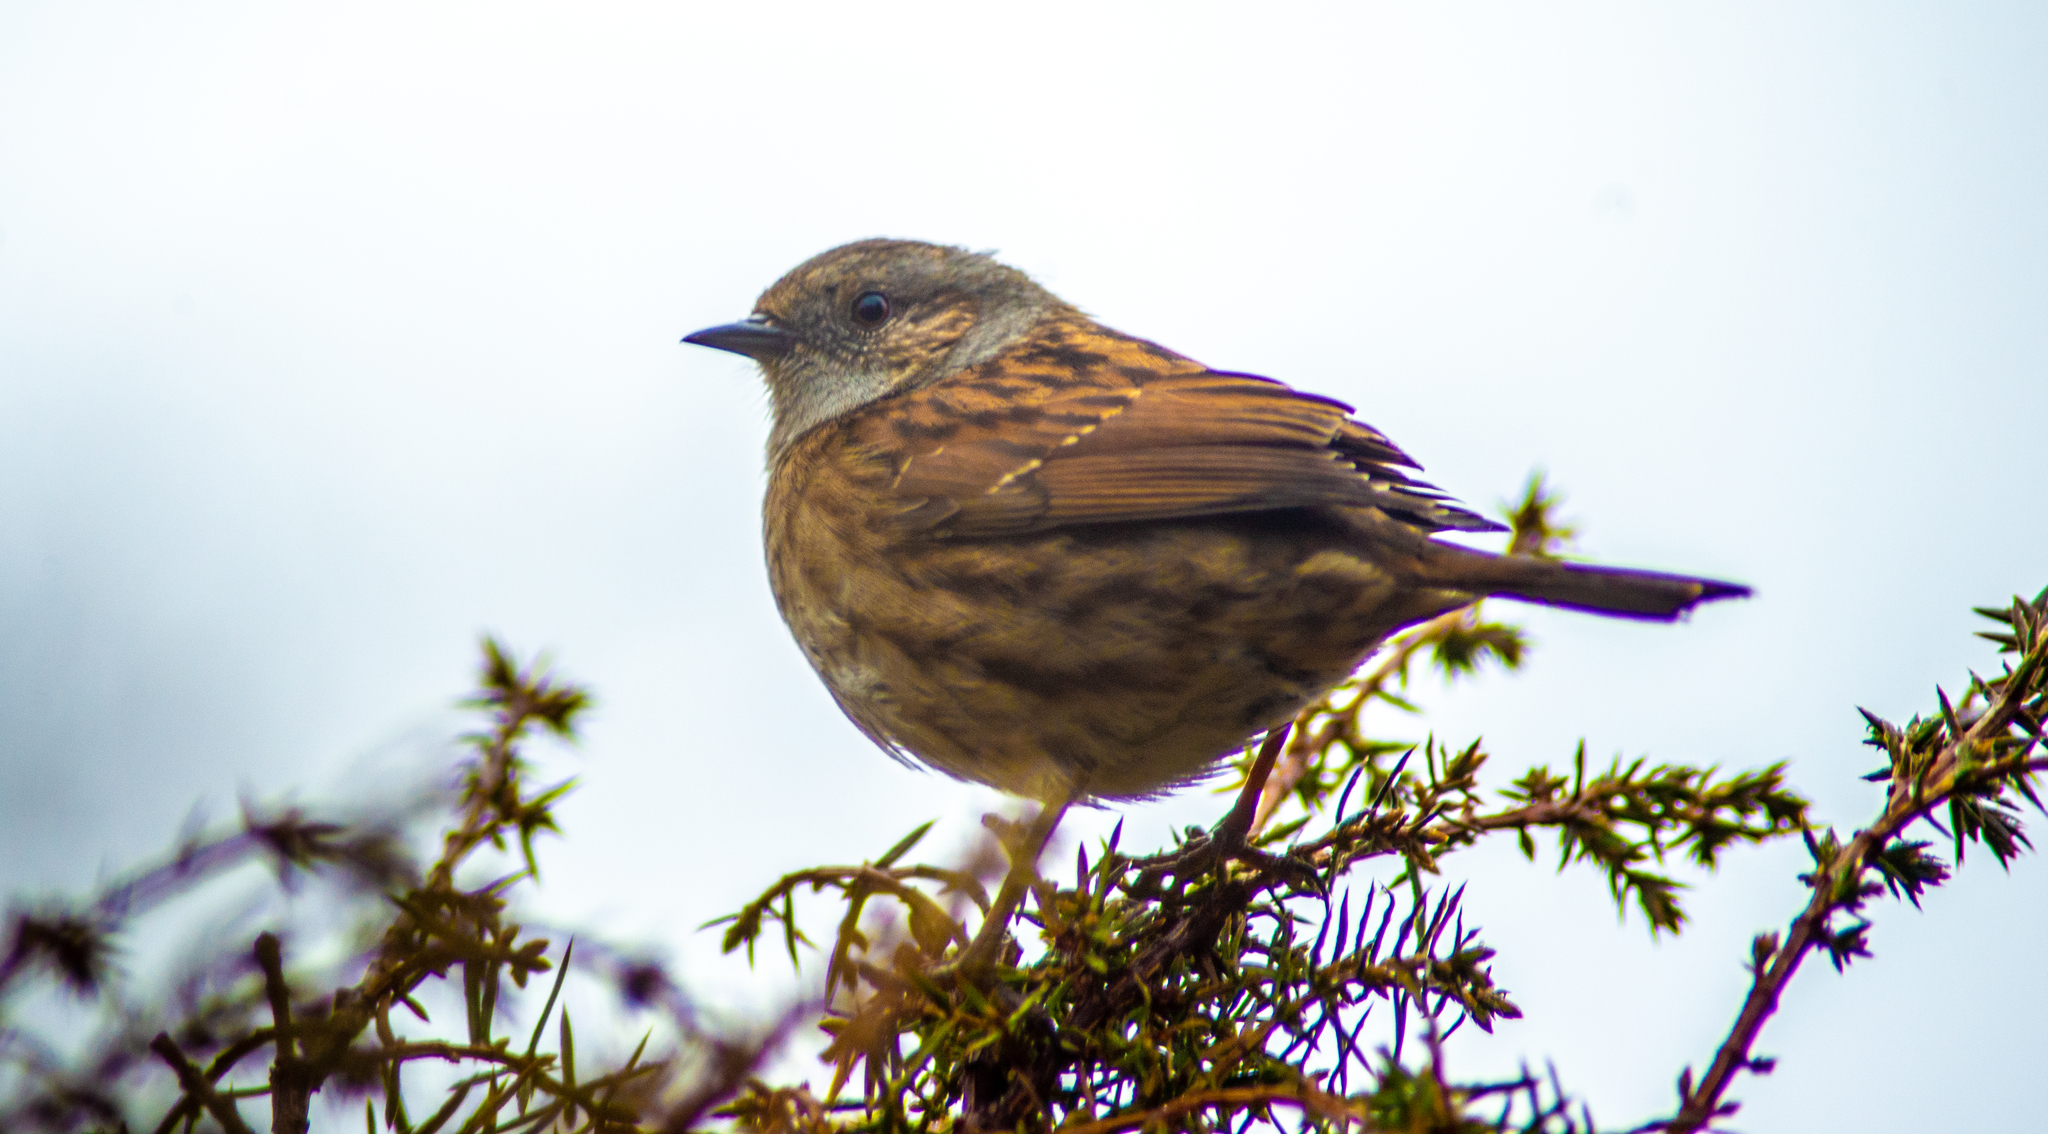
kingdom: Animalia
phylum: Chordata
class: Aves
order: Passeriformes
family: Prunellidae
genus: Prunella
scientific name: Prunella modularis
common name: Dunnock
